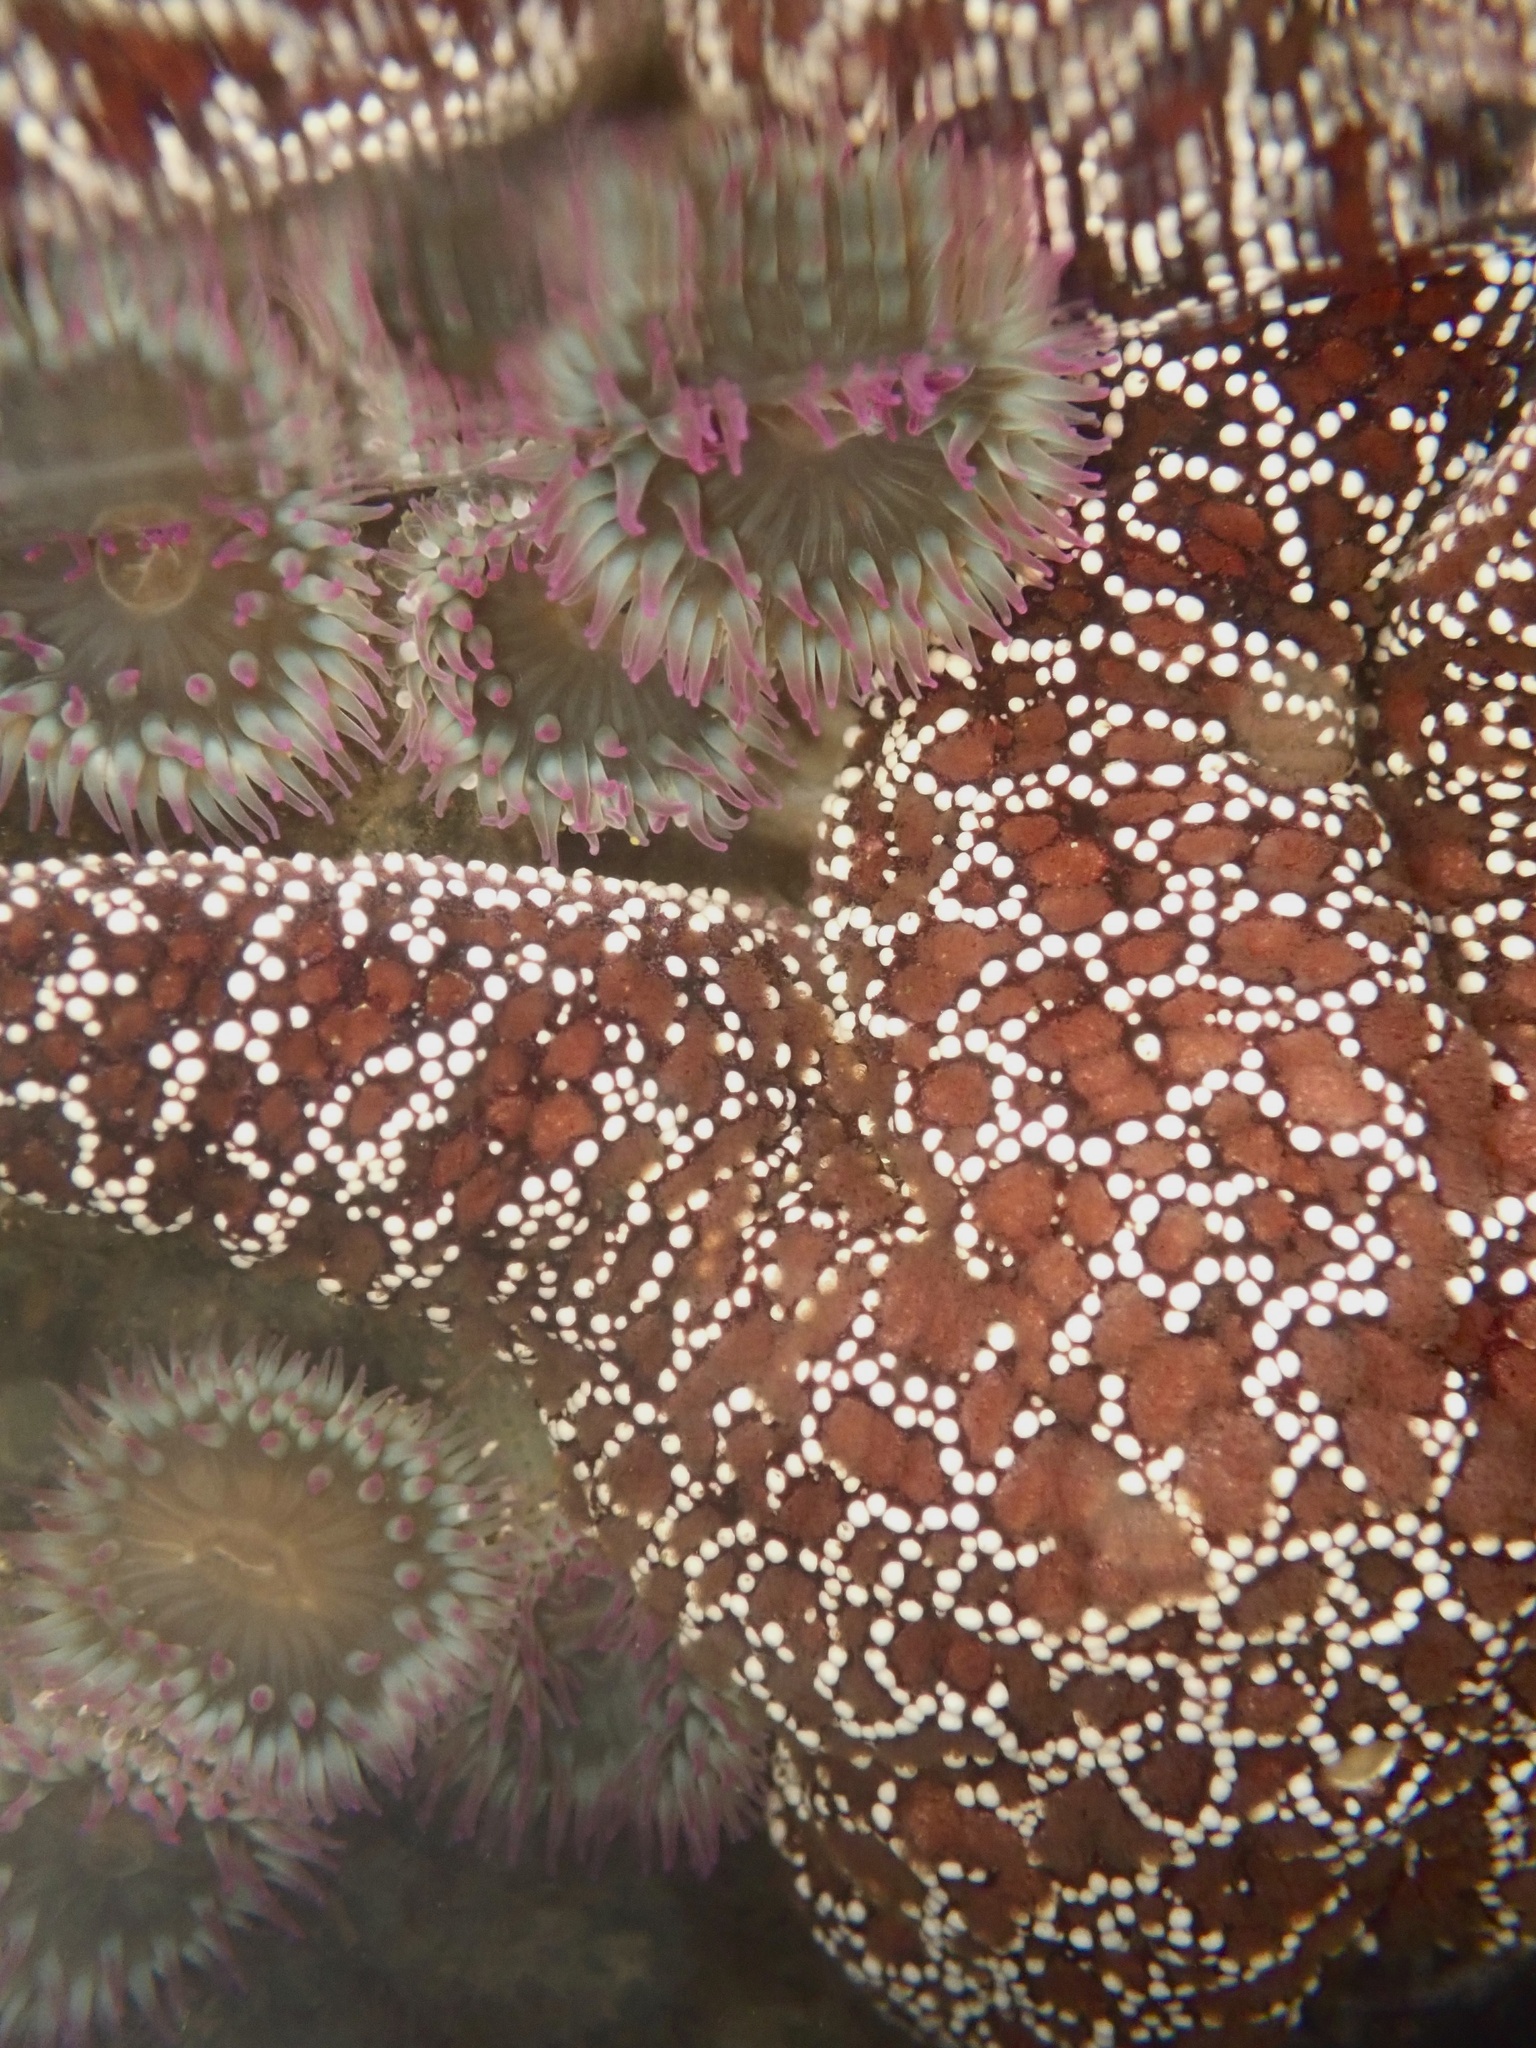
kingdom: Animalia
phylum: Echinodermata
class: Asteroidea
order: Forcipulatida
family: Asteriidae
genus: Pisaster
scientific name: Pisaster ochraceus
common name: Ochre stars
